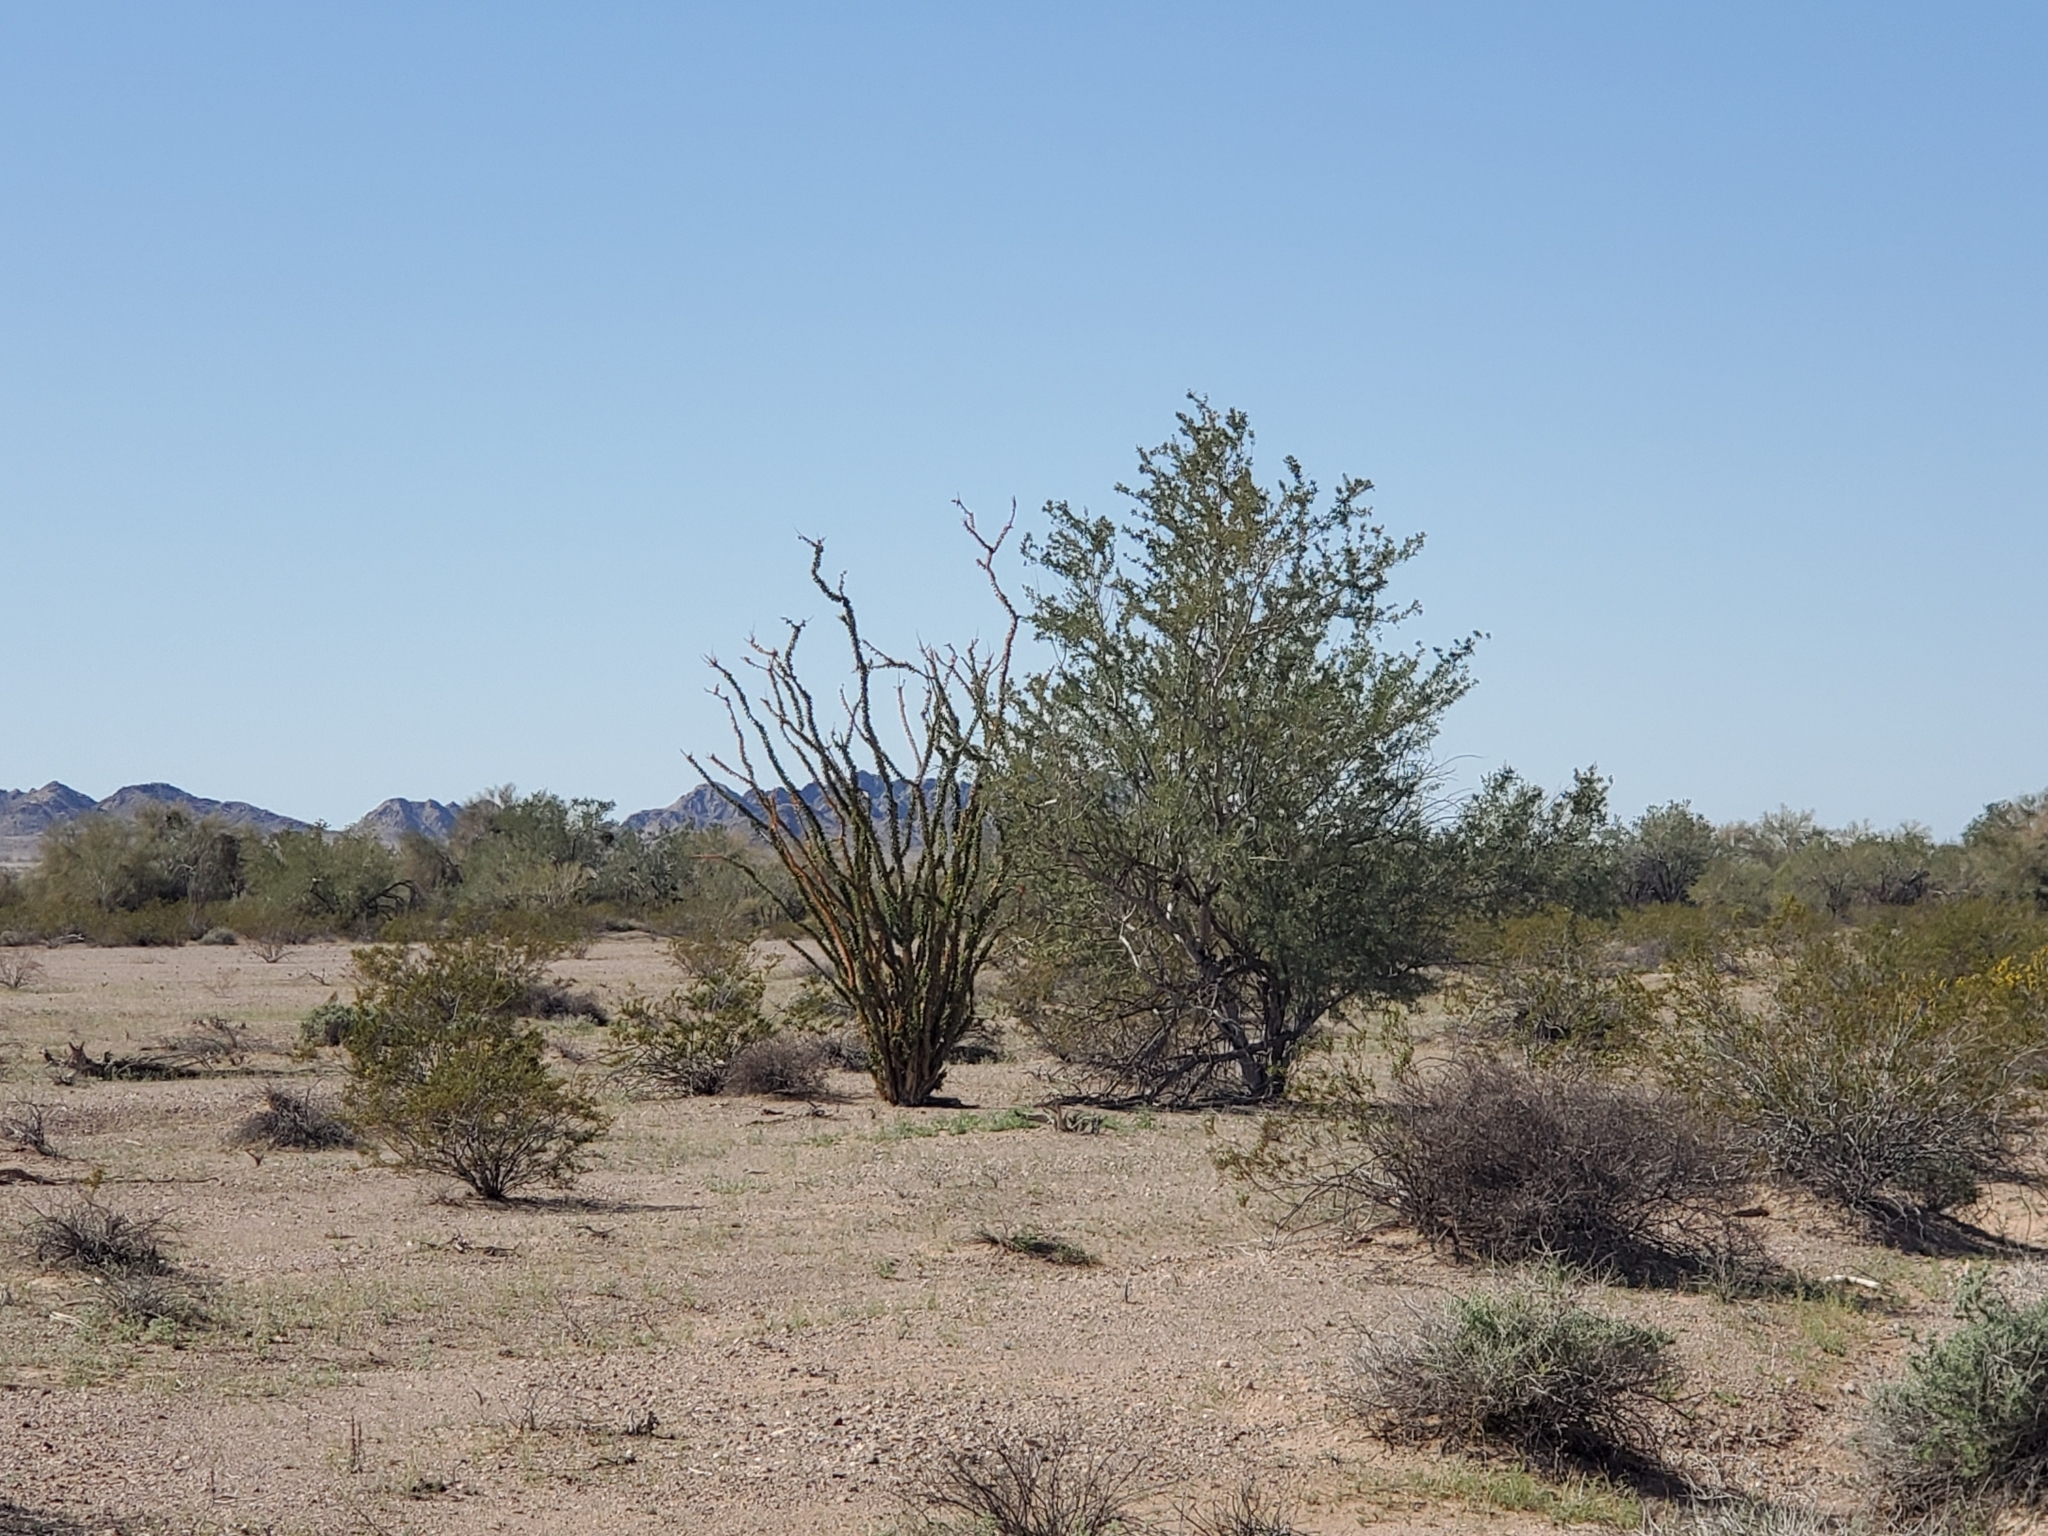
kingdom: Plantae
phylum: Tracheophyta
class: Magnoliopsida
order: Fabales
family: Fabaceae
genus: Olneya
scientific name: Olneya tesota
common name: Desert ironwood
